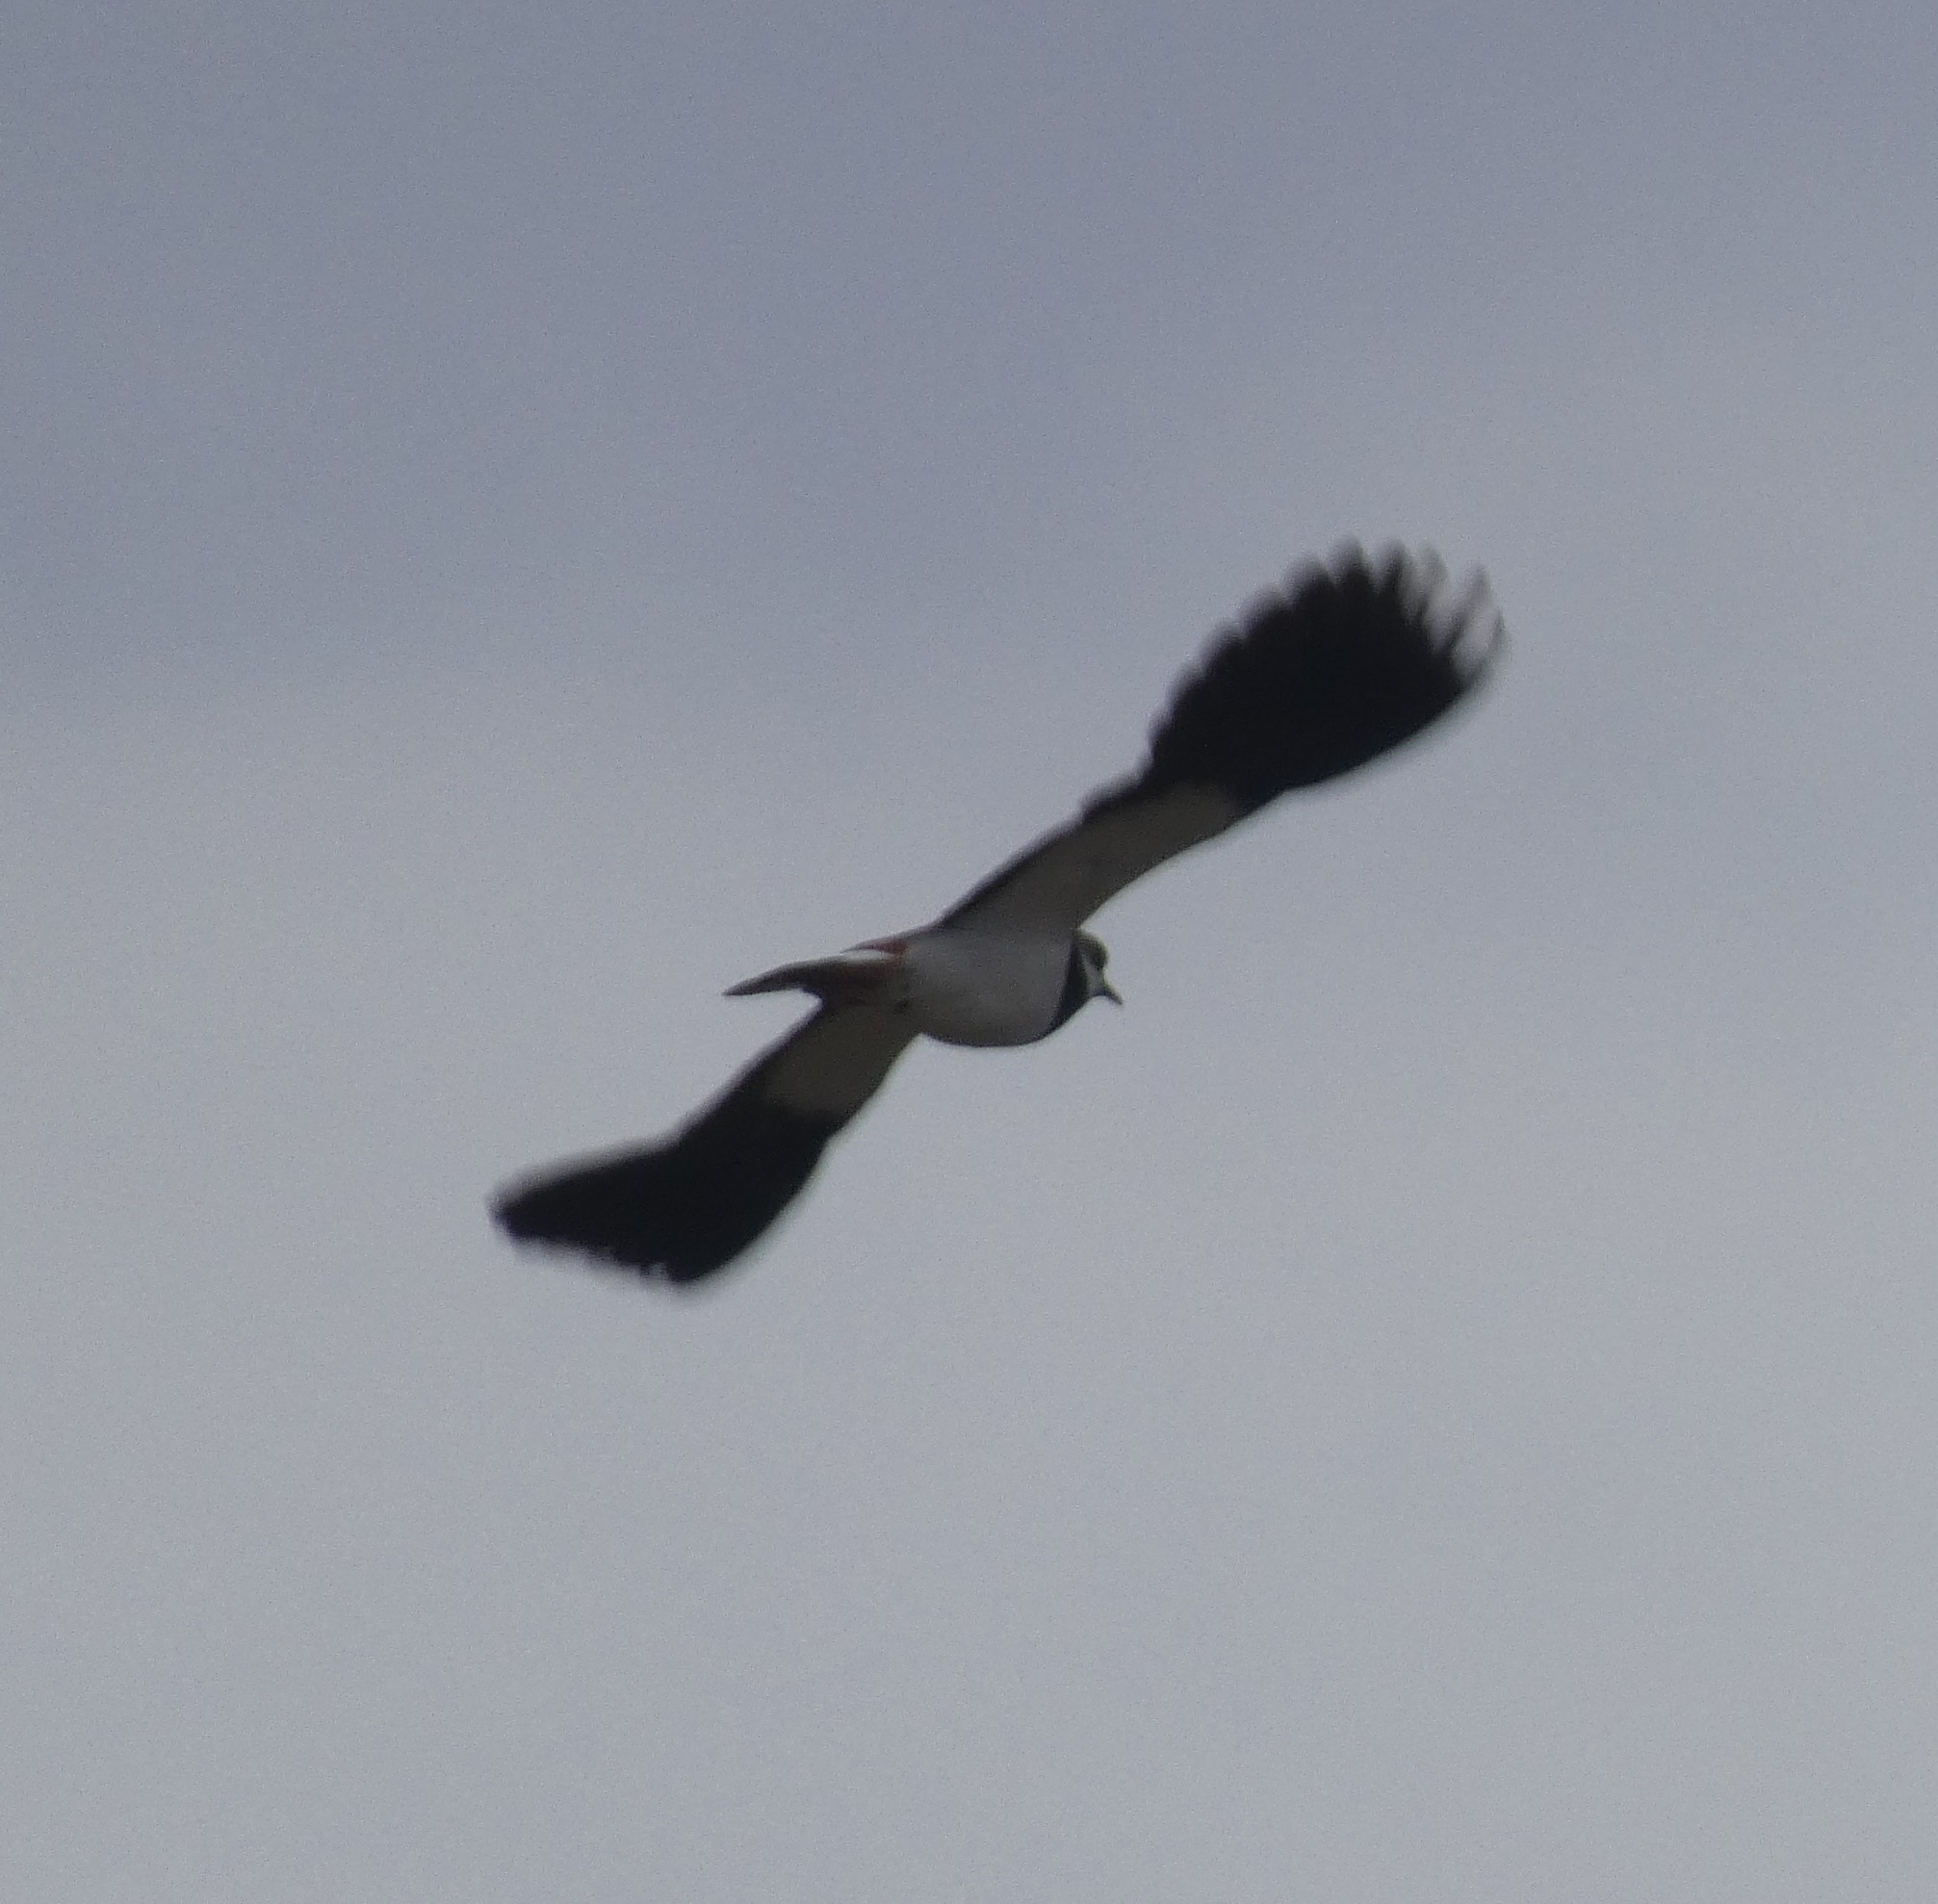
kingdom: Animalia
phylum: Chordata
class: Aves
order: Charadriiformes
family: Charadriidae
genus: Vanellus
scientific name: Vanellus vanellus
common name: Northern lapwing
